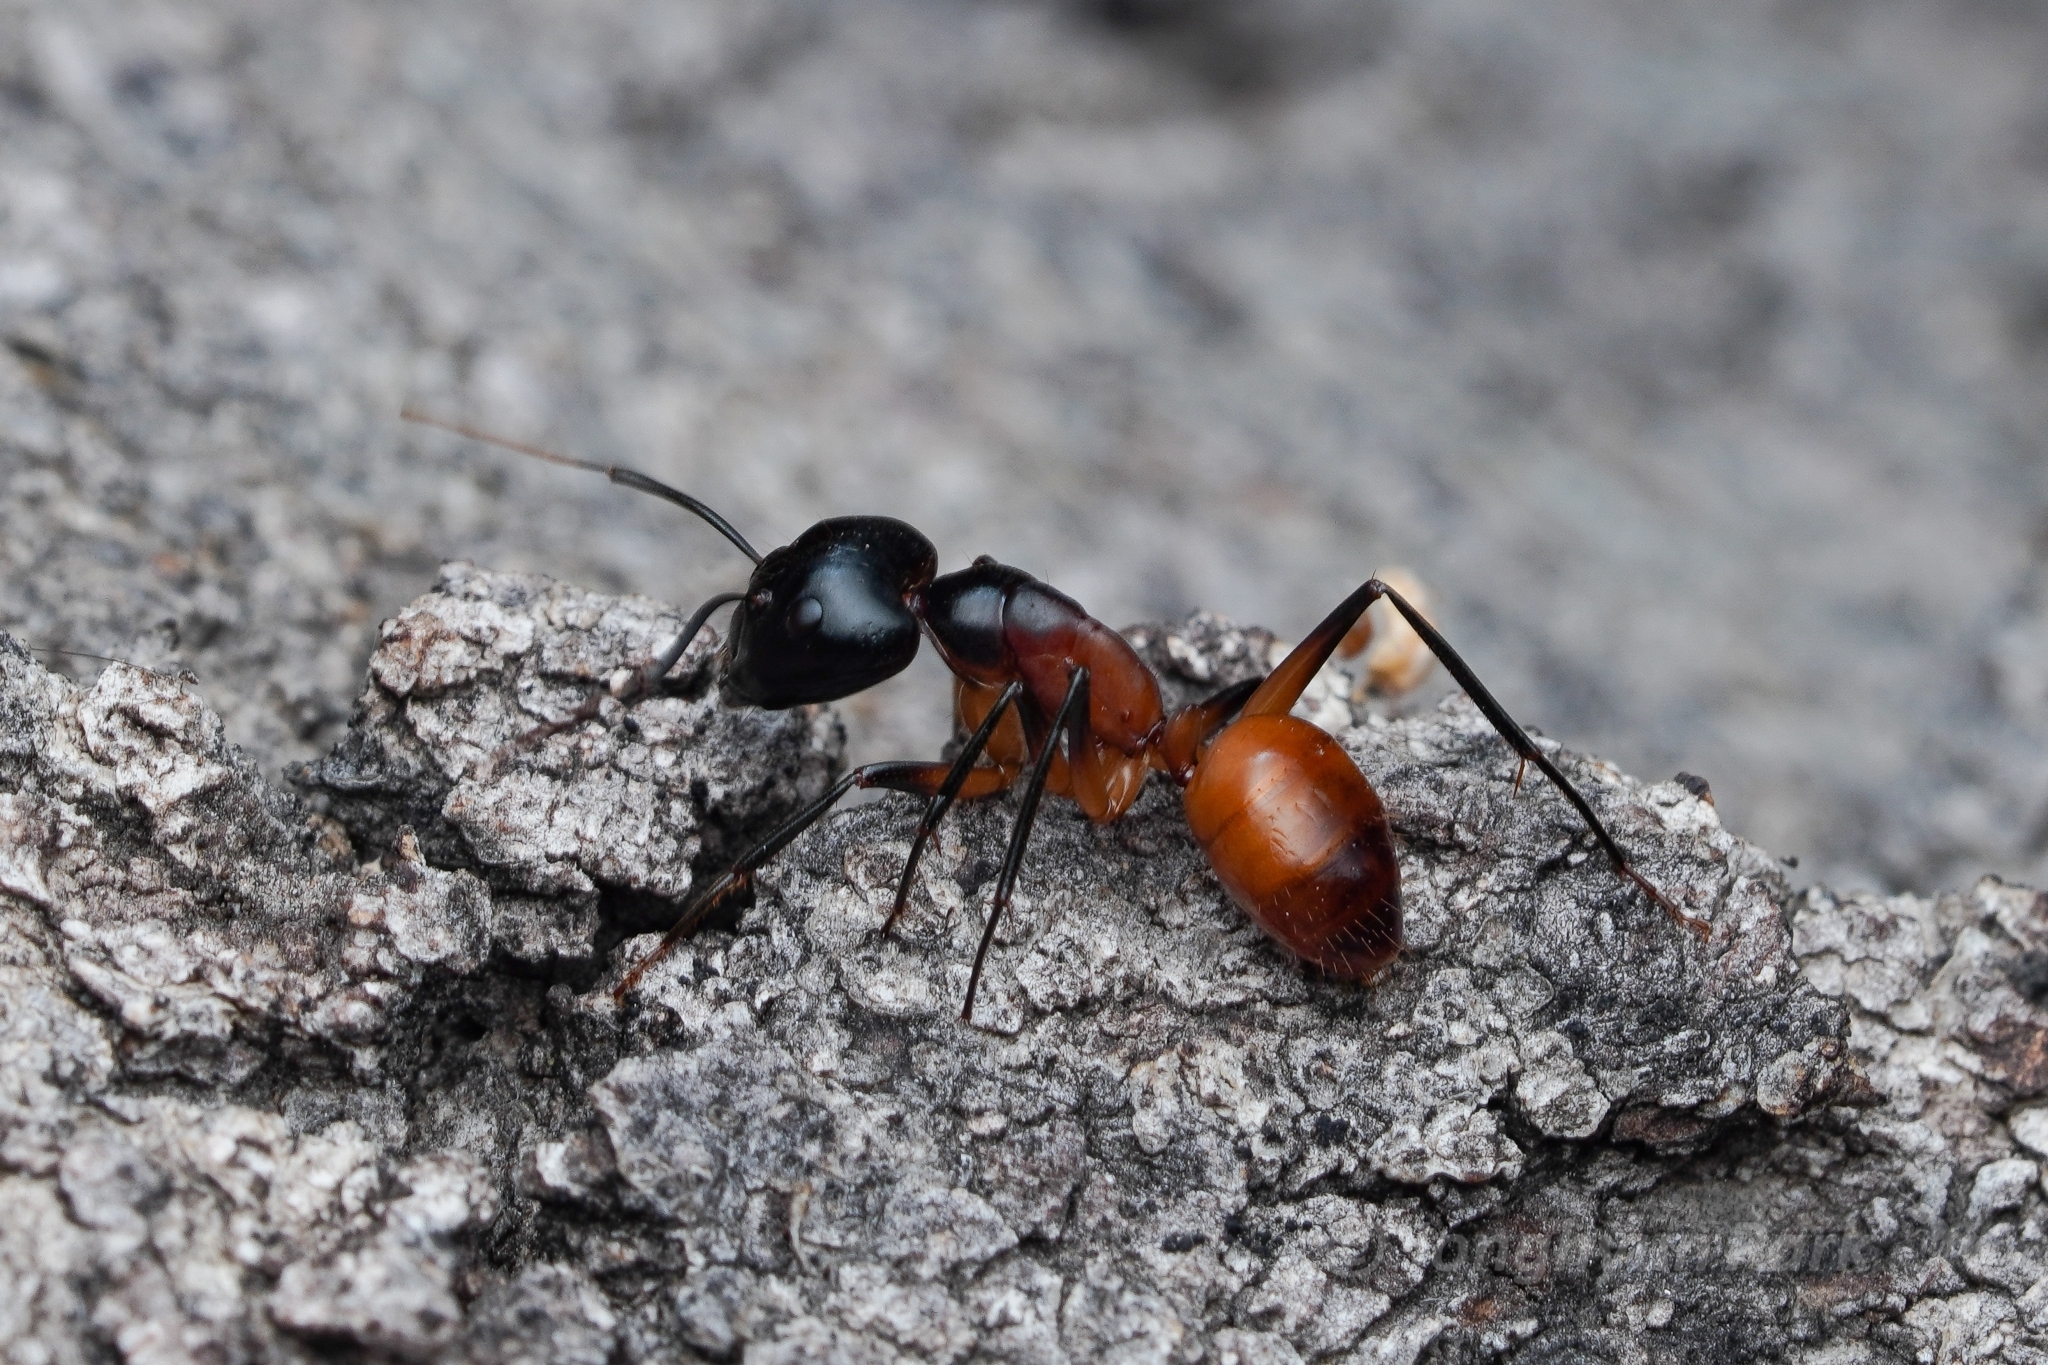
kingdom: Animalia
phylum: Arthropoda
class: Insecta
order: Hymenoptera
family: Formicidae
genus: Camponotus
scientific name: Camponotus ocreatus
